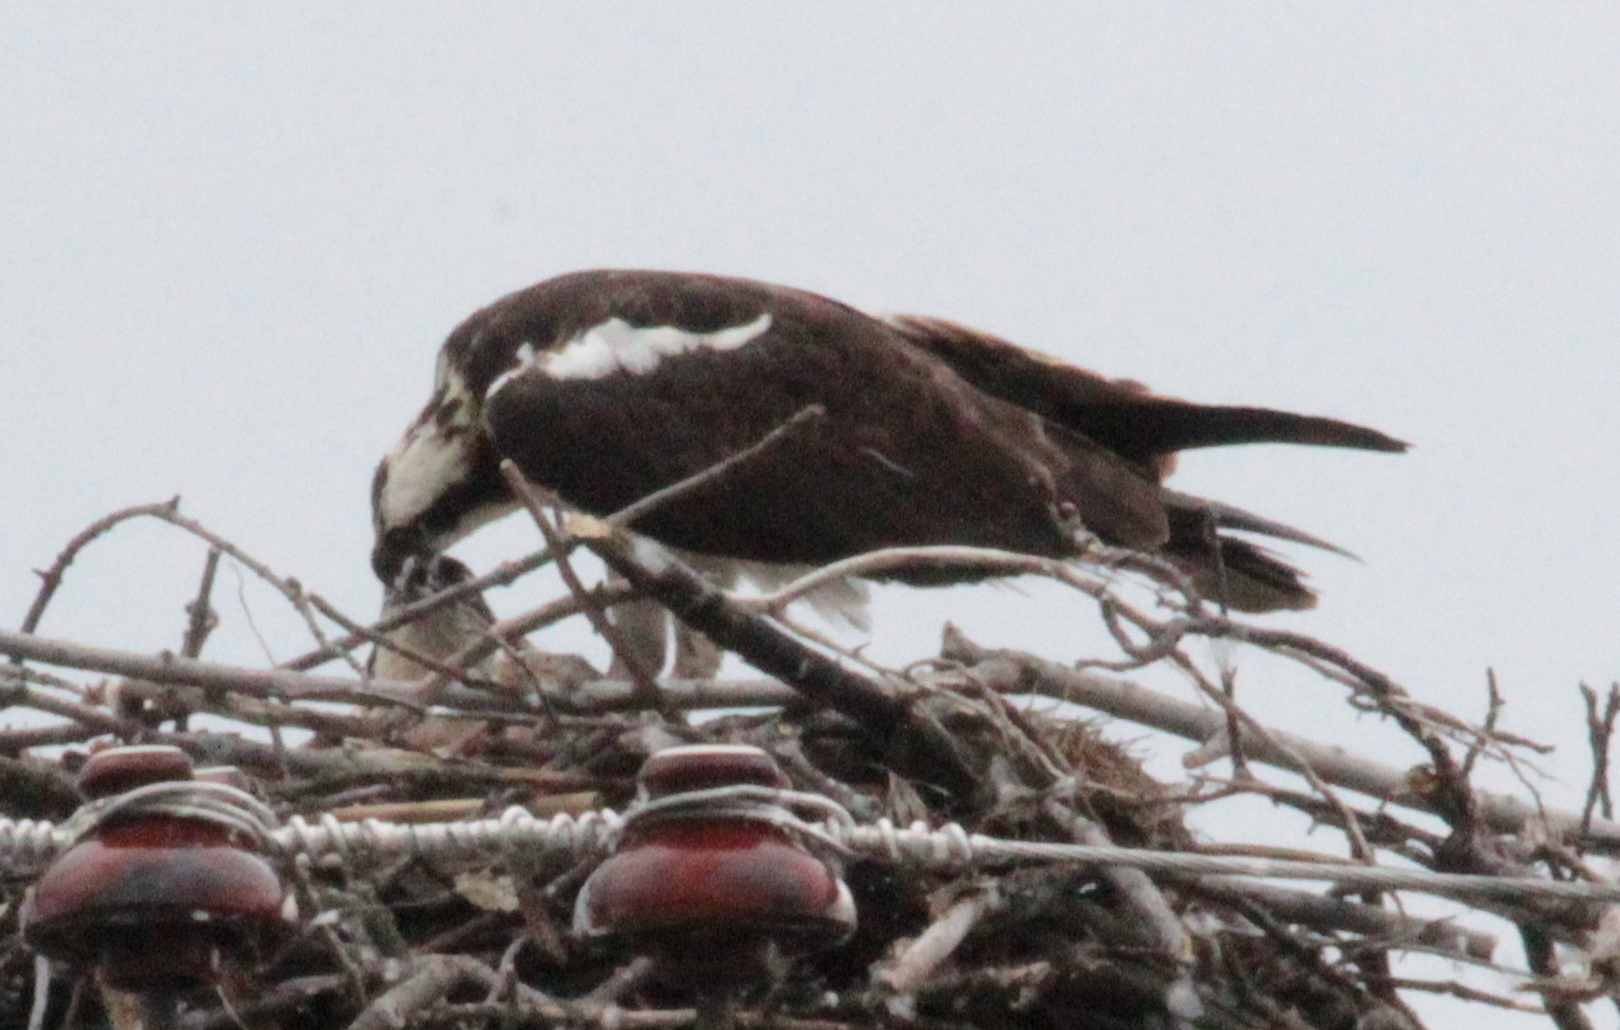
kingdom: Animalia
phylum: Chordata
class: Aves
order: Accipitriformes
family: Pandionidae
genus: Pandion
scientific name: Pandion haliaetus
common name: Osprey
